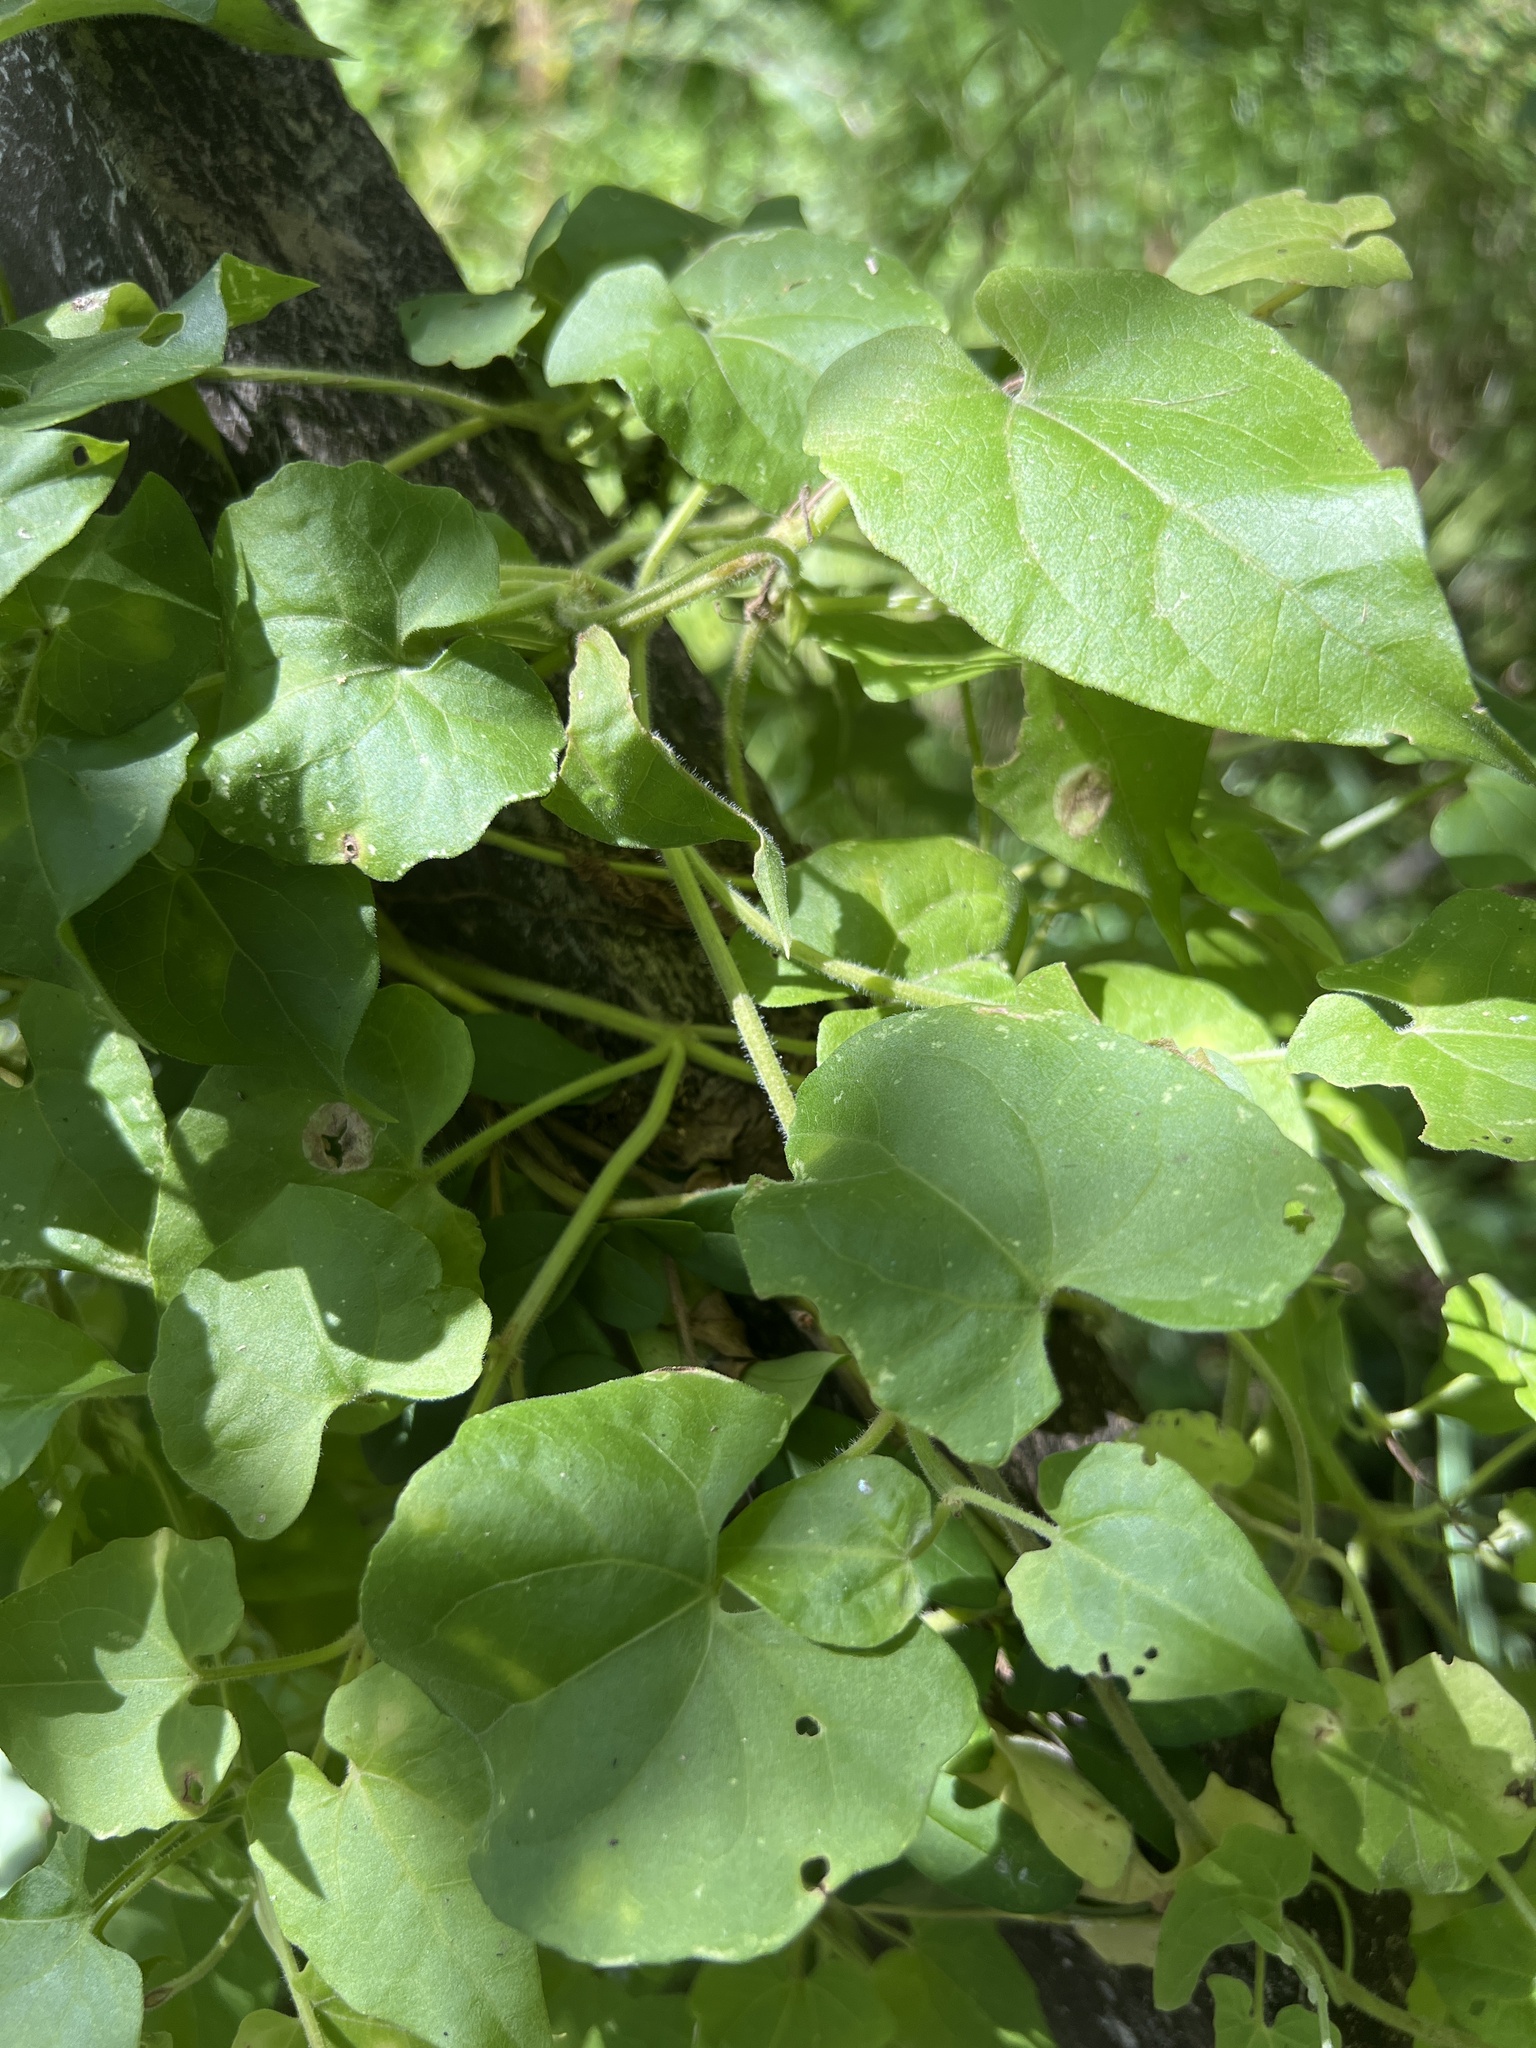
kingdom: Plantae
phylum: Tracheophyta
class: Magnoliopsida
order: Asterales
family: Asteraceae
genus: Mikania
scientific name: Mikania cordifolia
